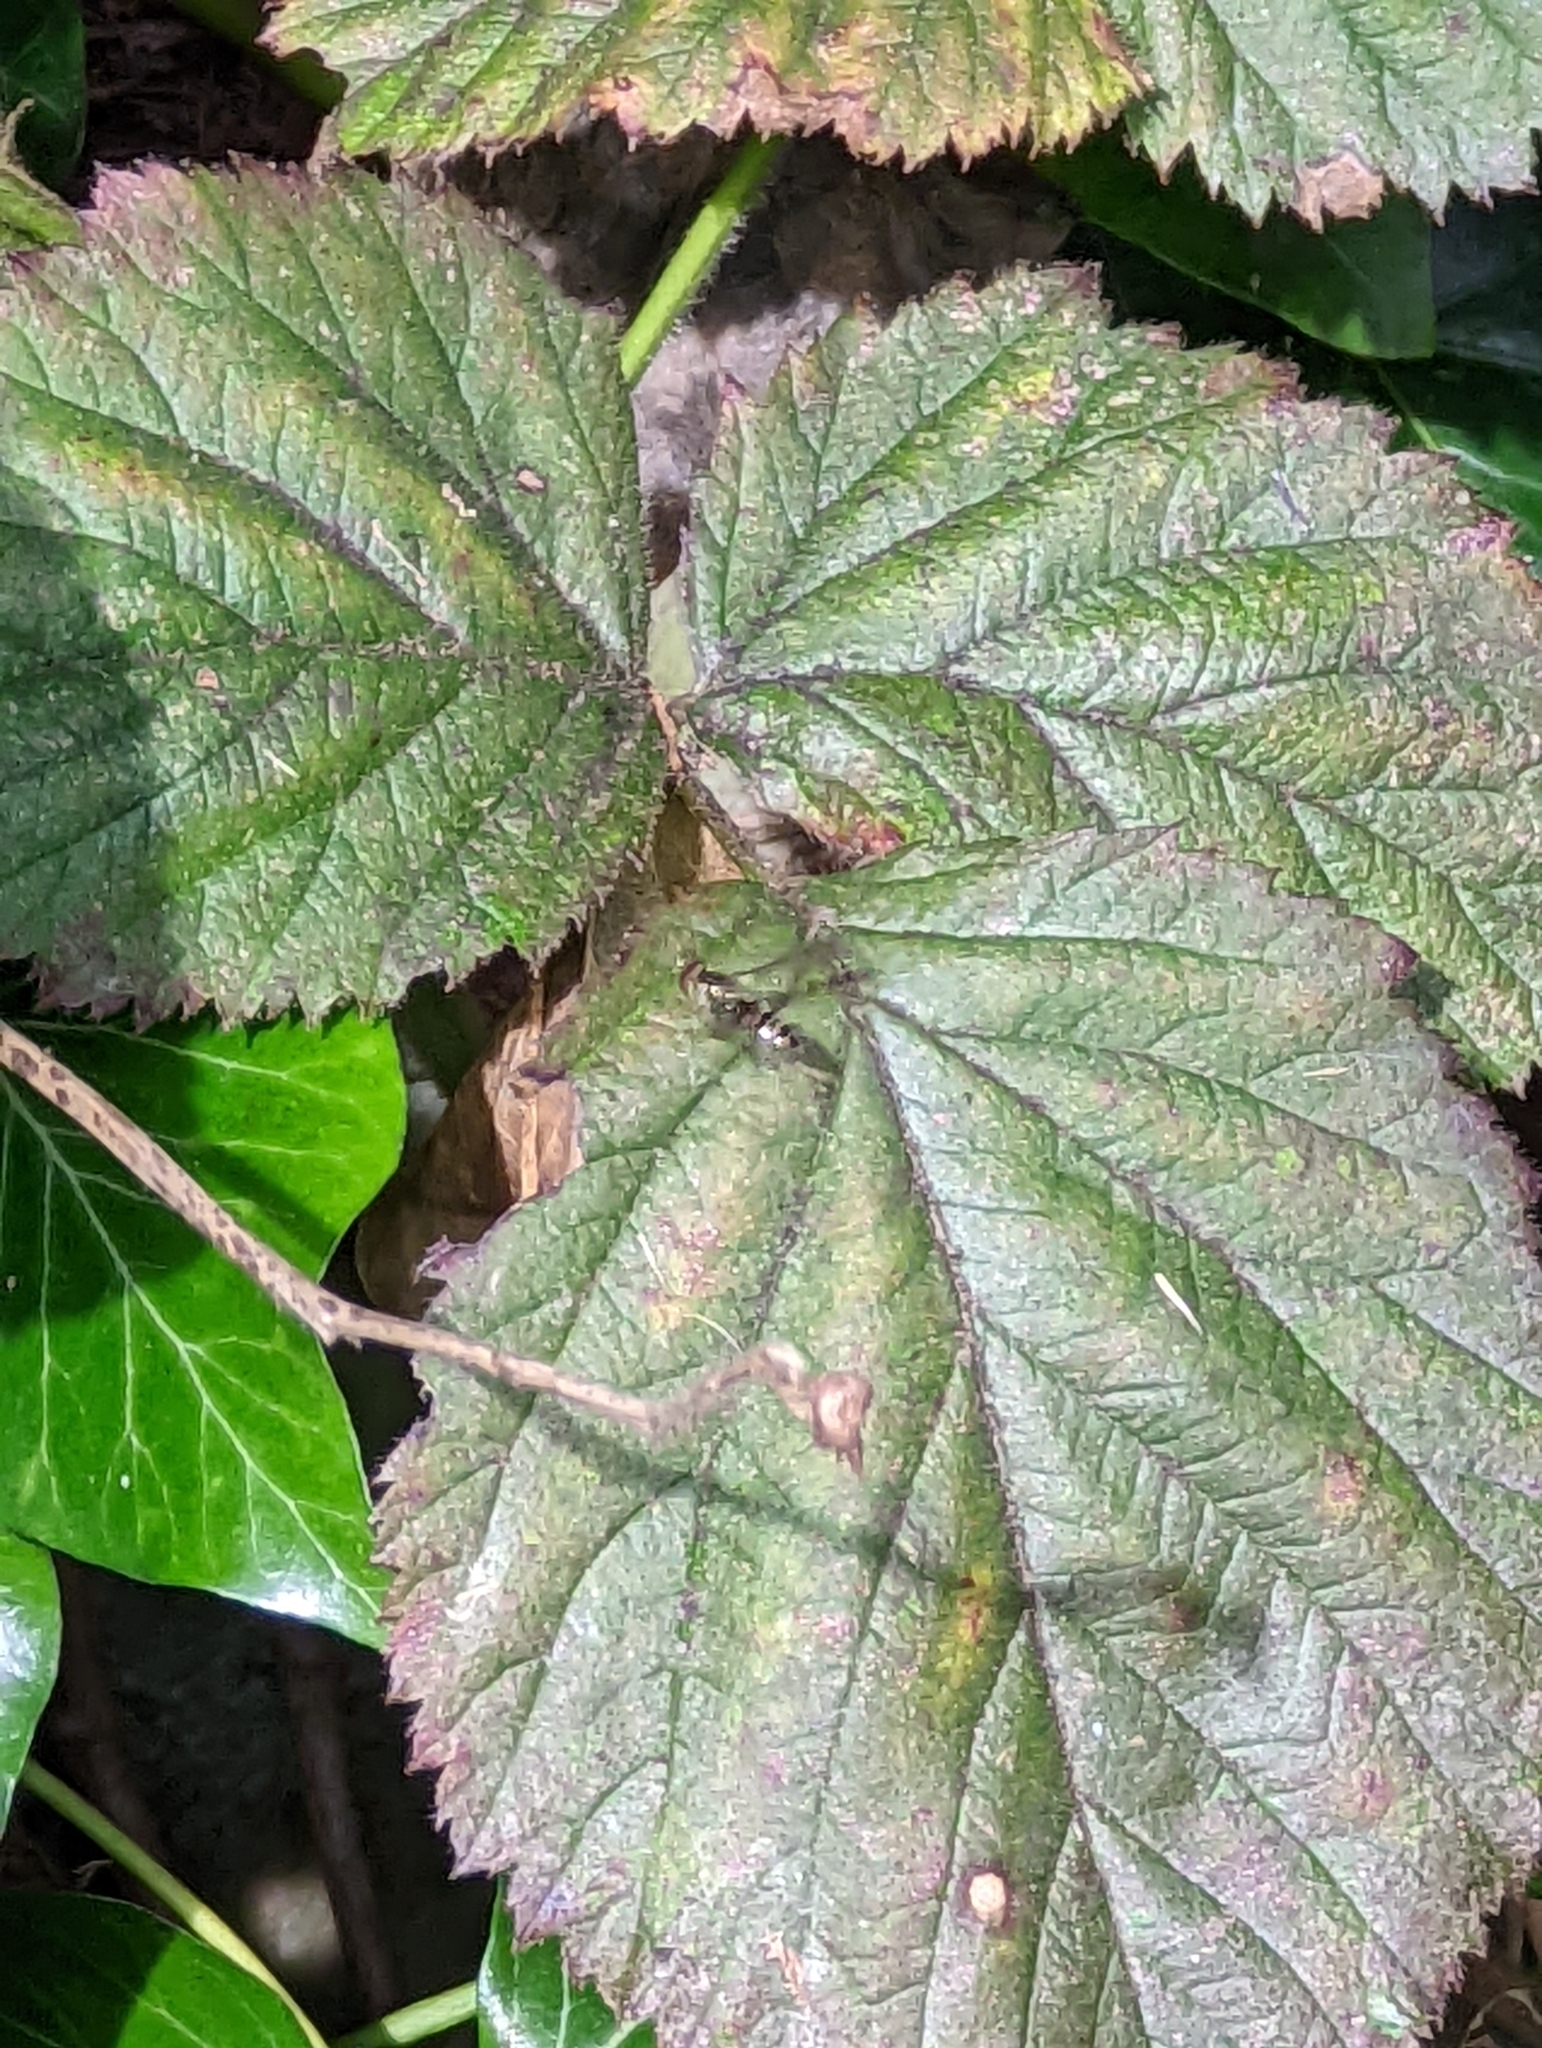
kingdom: Animalia
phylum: Arthropoda
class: Insecta
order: Diptera
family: Syrphidae
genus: Episyrphus
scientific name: Episyrphus balteatus
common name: Marmalade hoverfly
